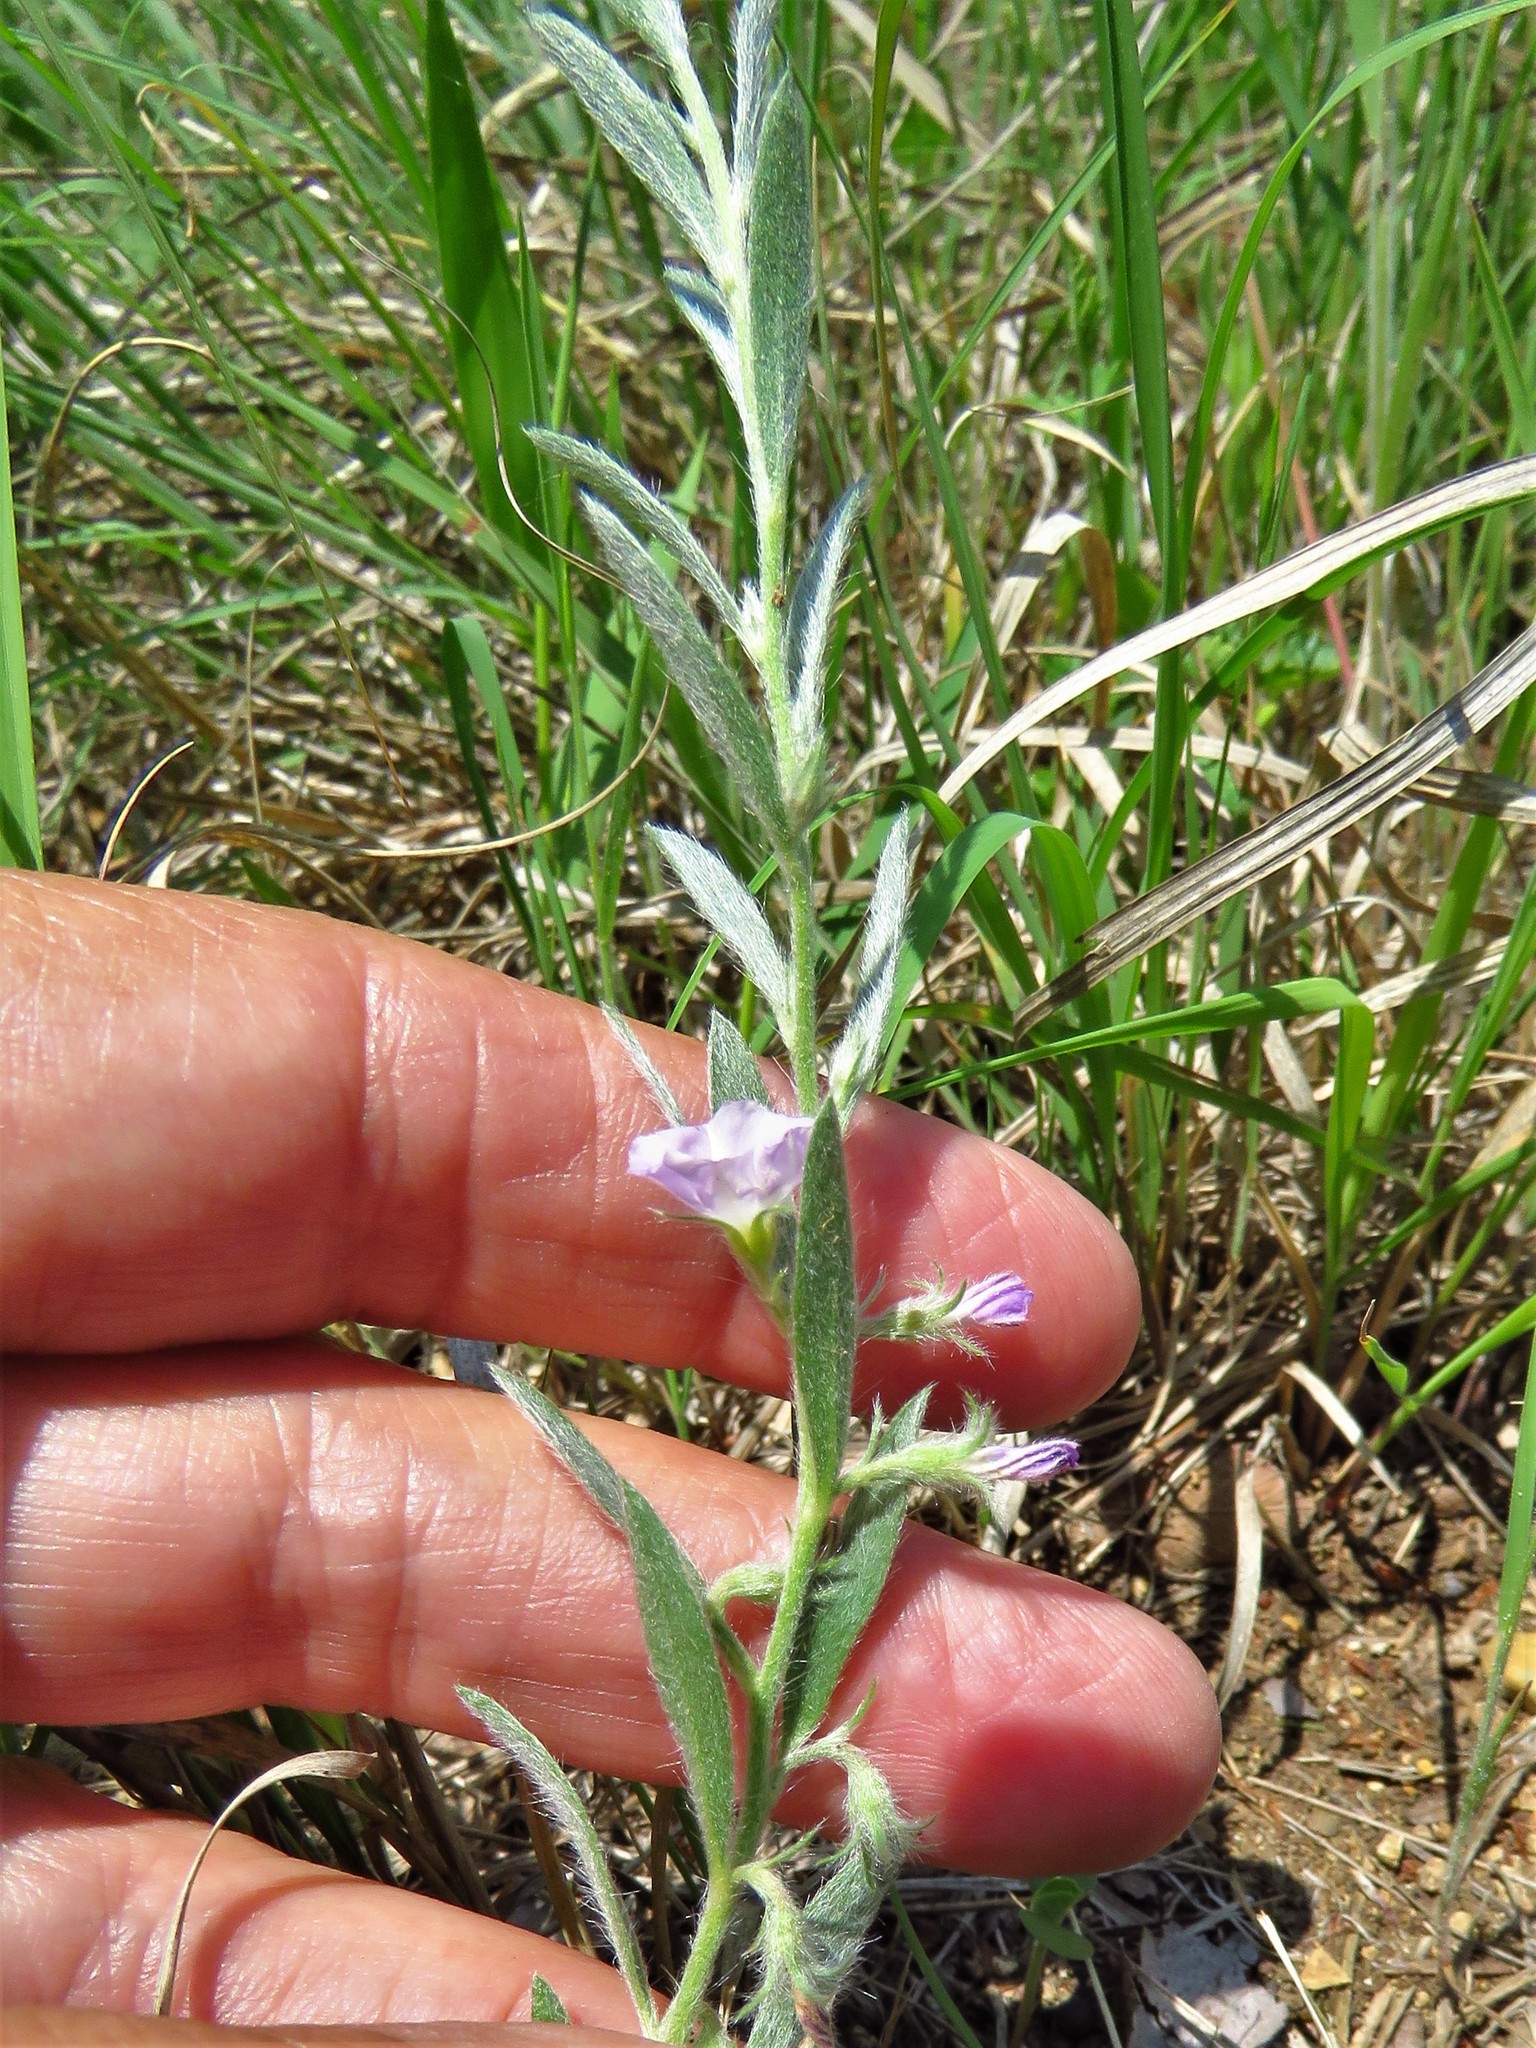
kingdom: Plantae
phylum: Tracheophyta
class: Magnoliopsida
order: Solanales
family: Convolvulaceae
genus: Evolvulus
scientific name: Evolvulus nuttallianus
